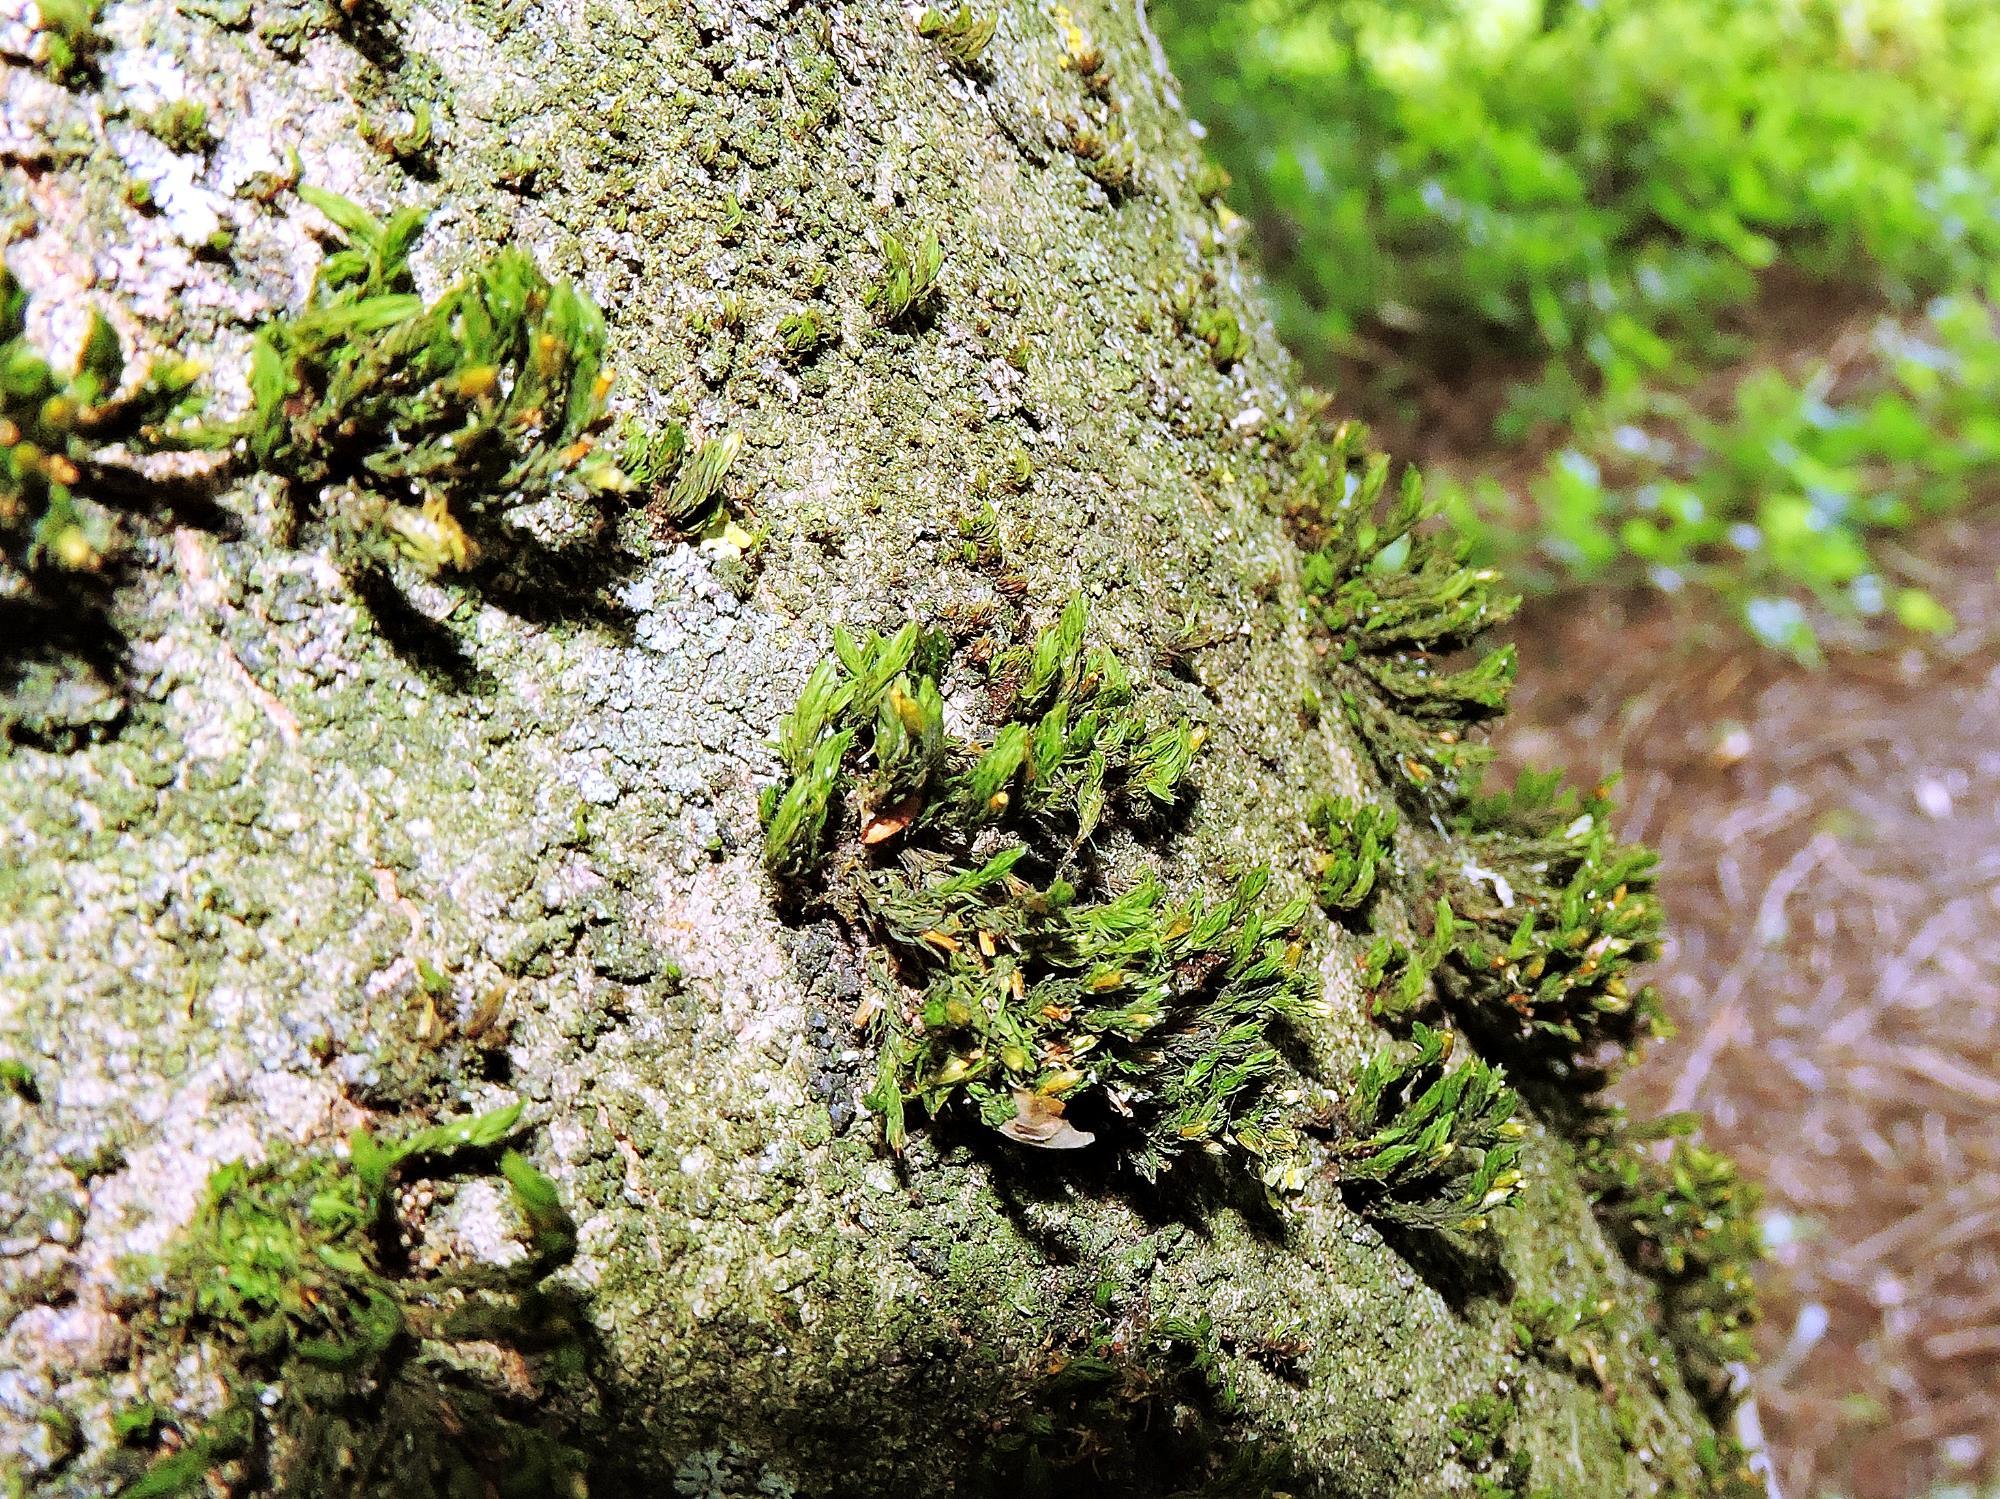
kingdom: Plantae
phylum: Bryophyta
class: Bryopsida
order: Orthotrichales
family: Orthotrichaceae
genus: Lewinskya
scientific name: Lewinskya affinis
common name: Wood bristle-moss
